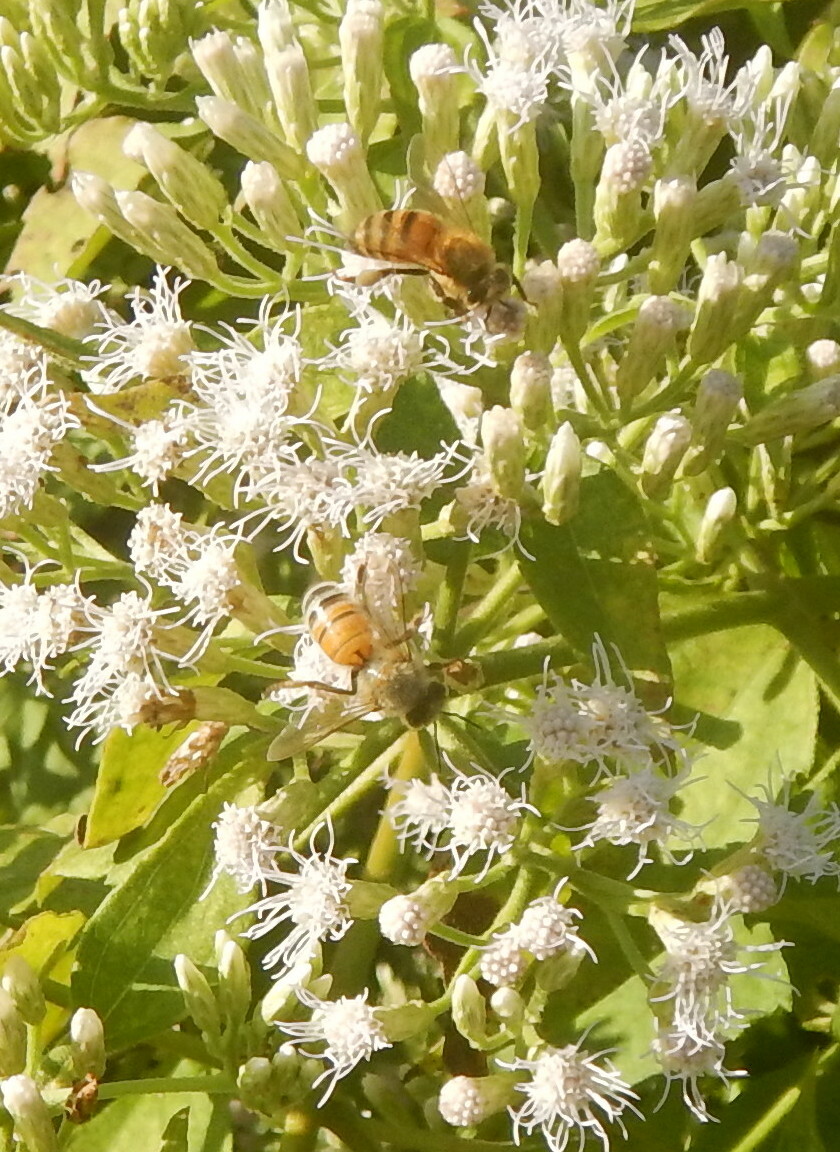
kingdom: Animalia
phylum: Arthropoda
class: Insecta
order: Hymenoptera
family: Apidae
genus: Apis
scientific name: Apis mellifera
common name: Honey bee
